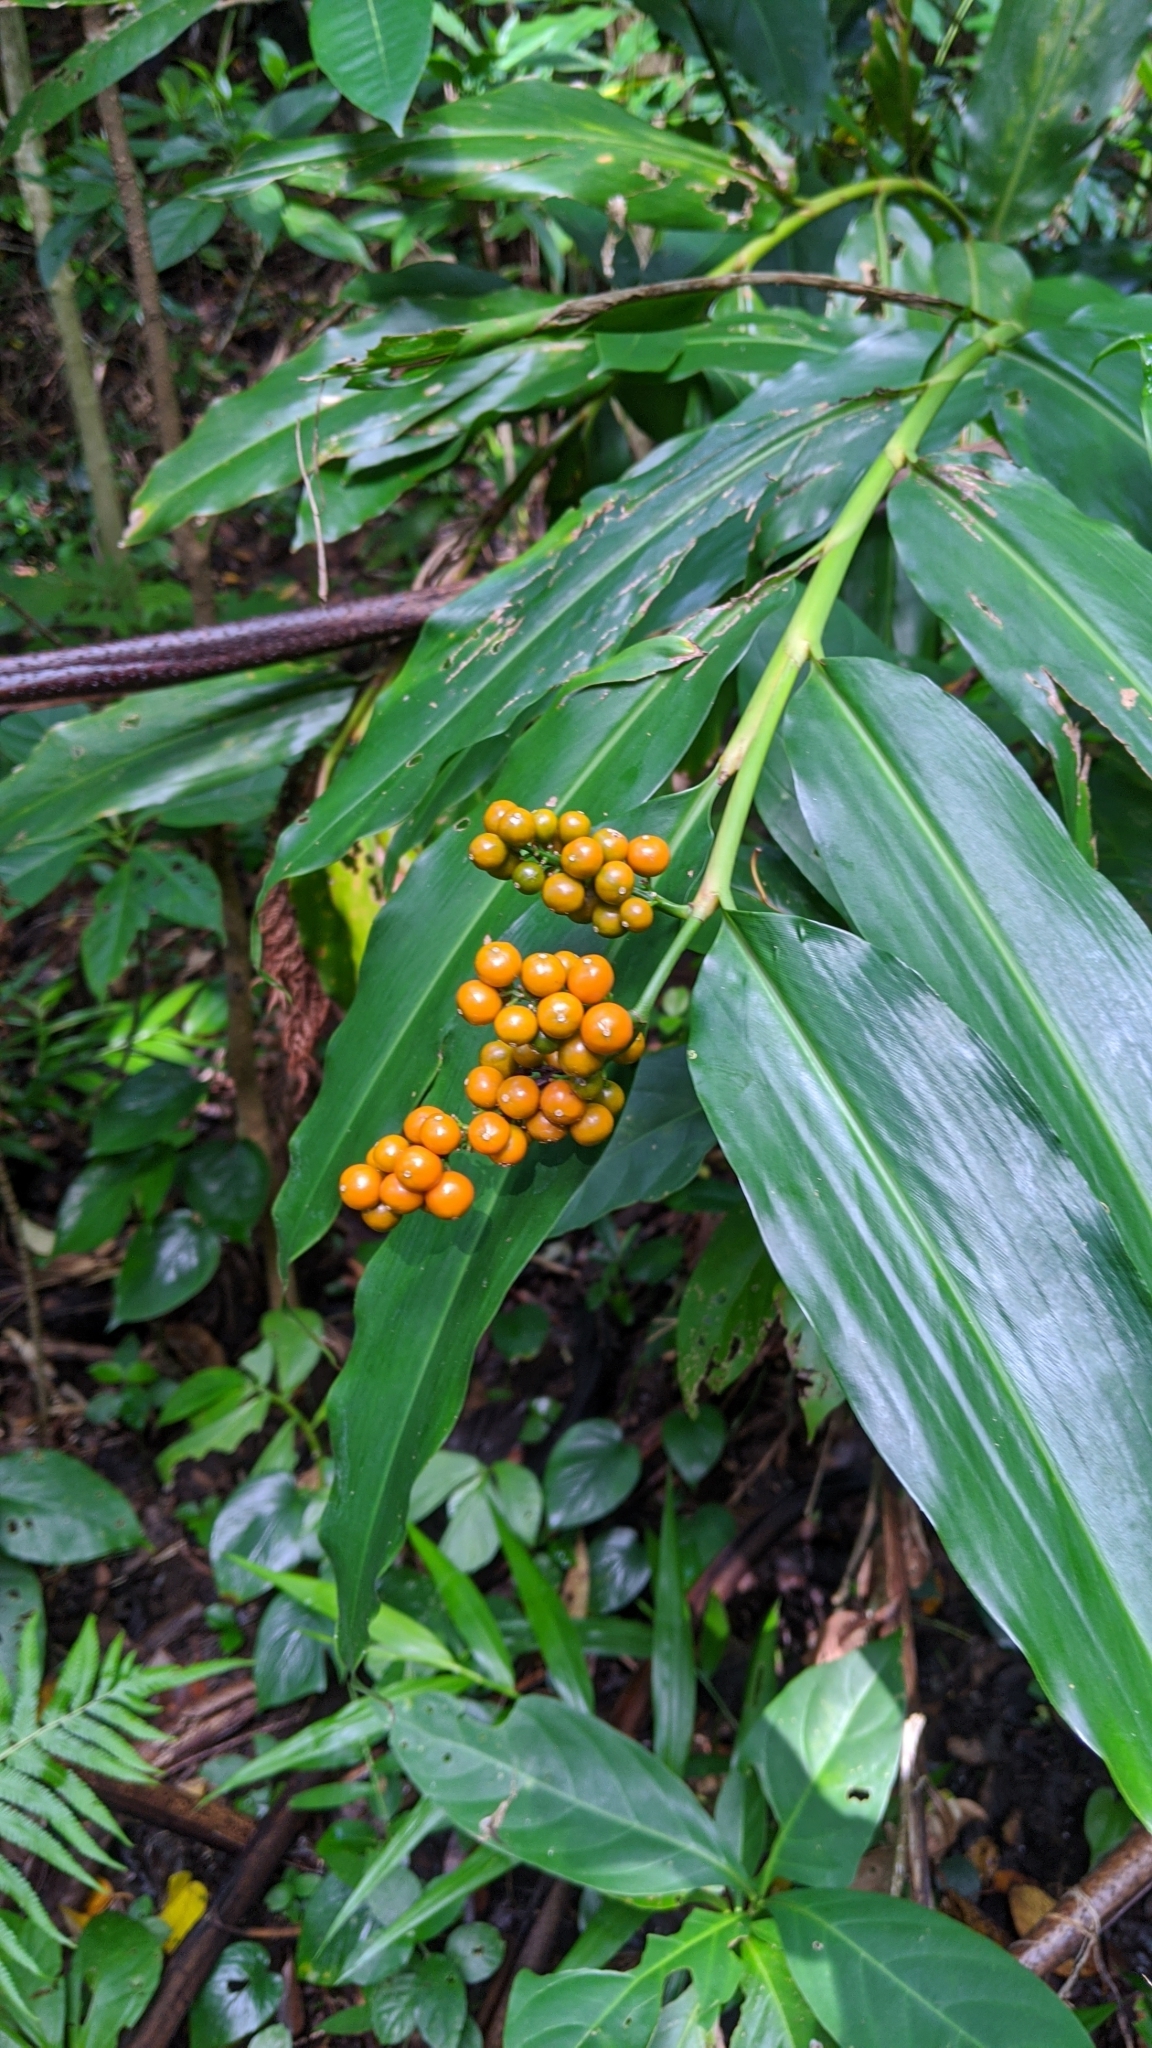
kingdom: Plantae
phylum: Tracheophyta
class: Liliopsida
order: Zingiberales
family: Zingiberaceae
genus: Alpinia
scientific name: Alpinia flabellata
